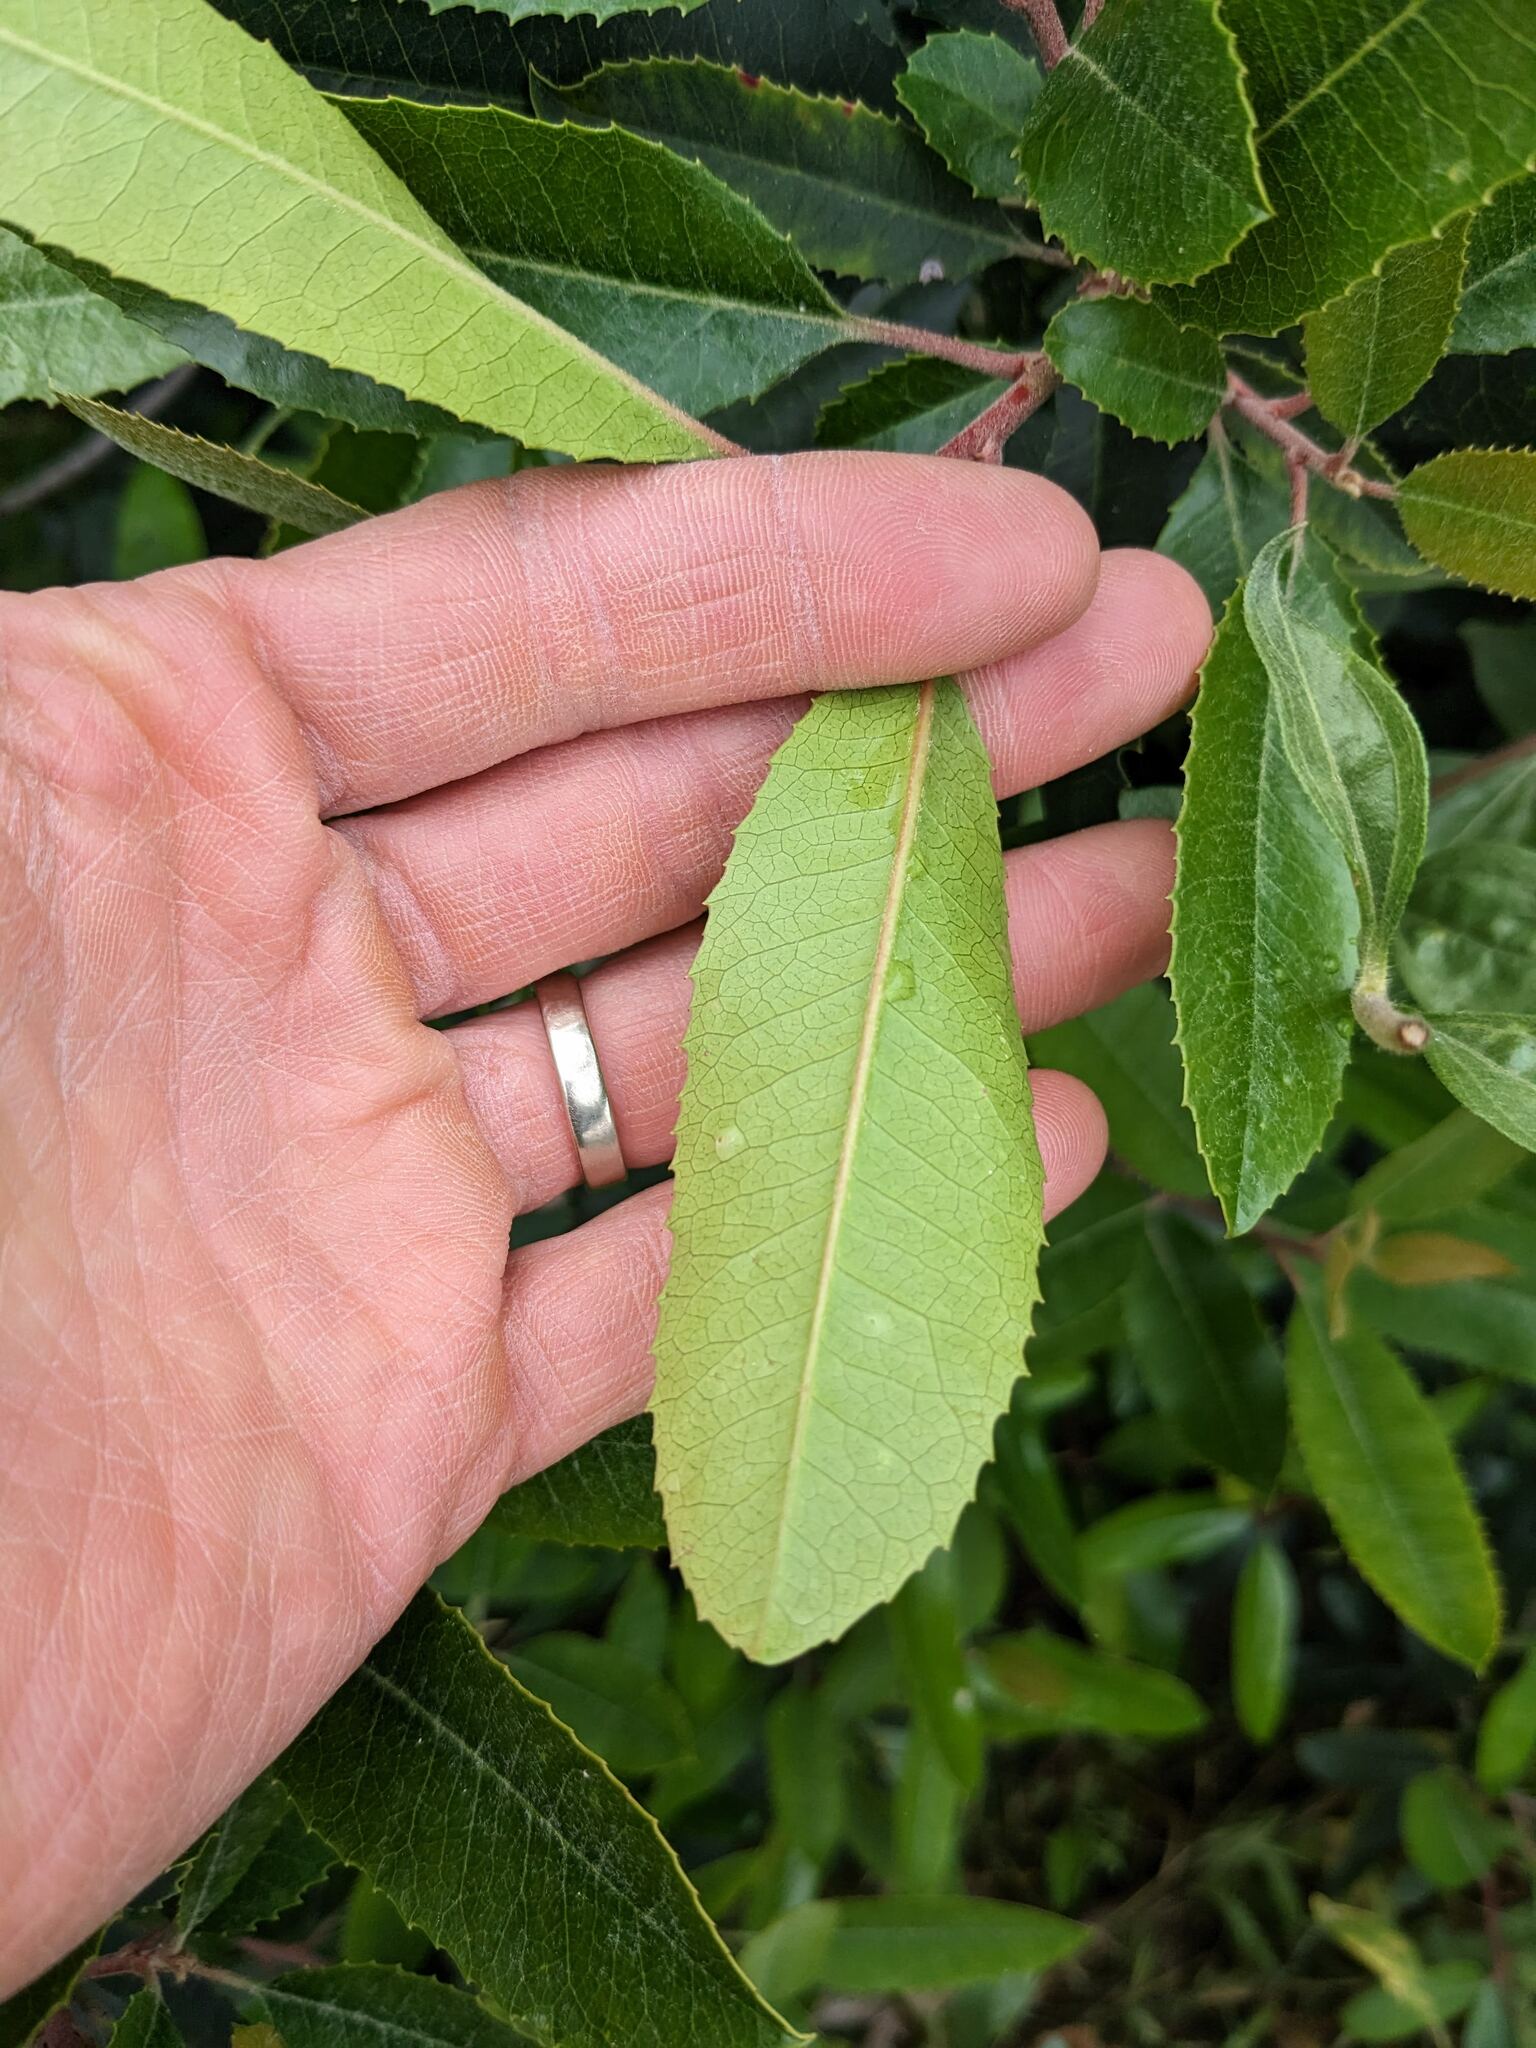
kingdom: Plantae
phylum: Tracheophyta
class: Magnoliopsida
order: Rosales
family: Rosaceae
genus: Heteromeles
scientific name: Heteromeles arbutifolia
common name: California-holly
